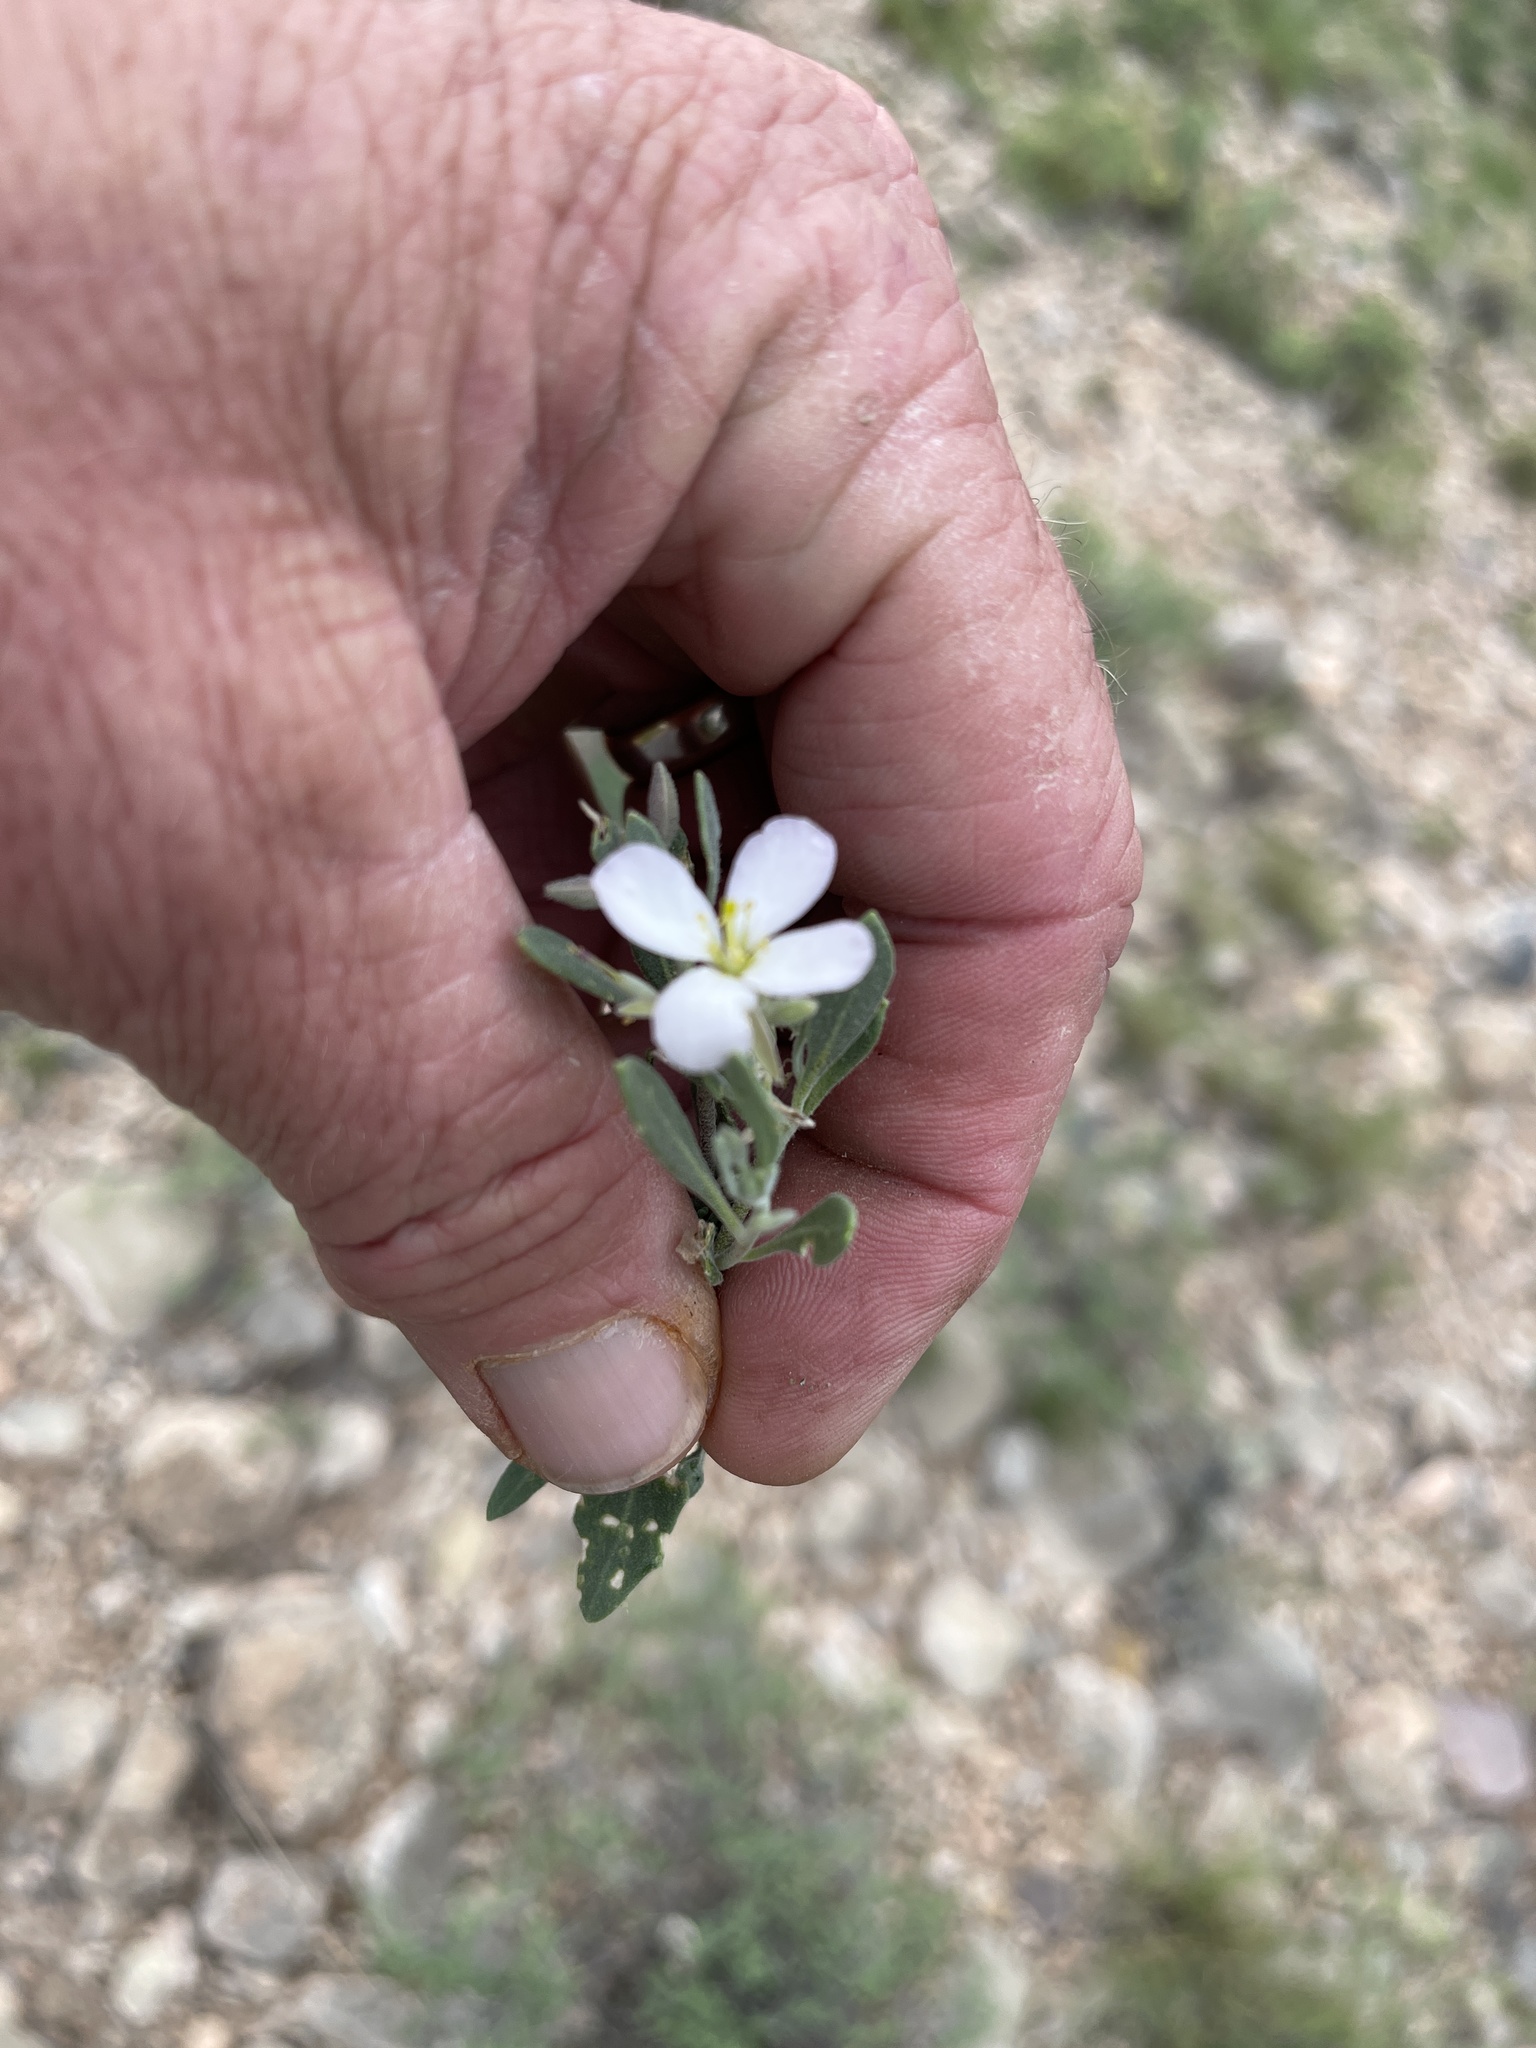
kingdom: Plantae
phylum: Tracheophyta
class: Magnoliopsida
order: Brassicales
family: Brassicaceae
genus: Nerisyrenia
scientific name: Nerisyrenia camporum
